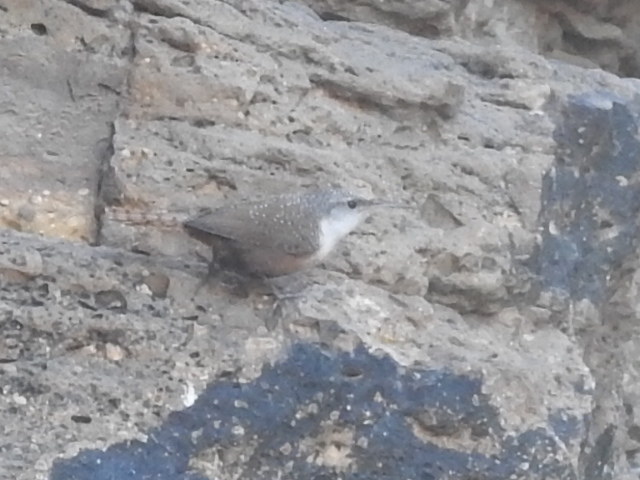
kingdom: Animalia
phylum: Chordata
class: Aves
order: Passeriformes
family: Troglodytidae
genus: Catherpes
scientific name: Catherpes mexicanus
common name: Canyon wren
